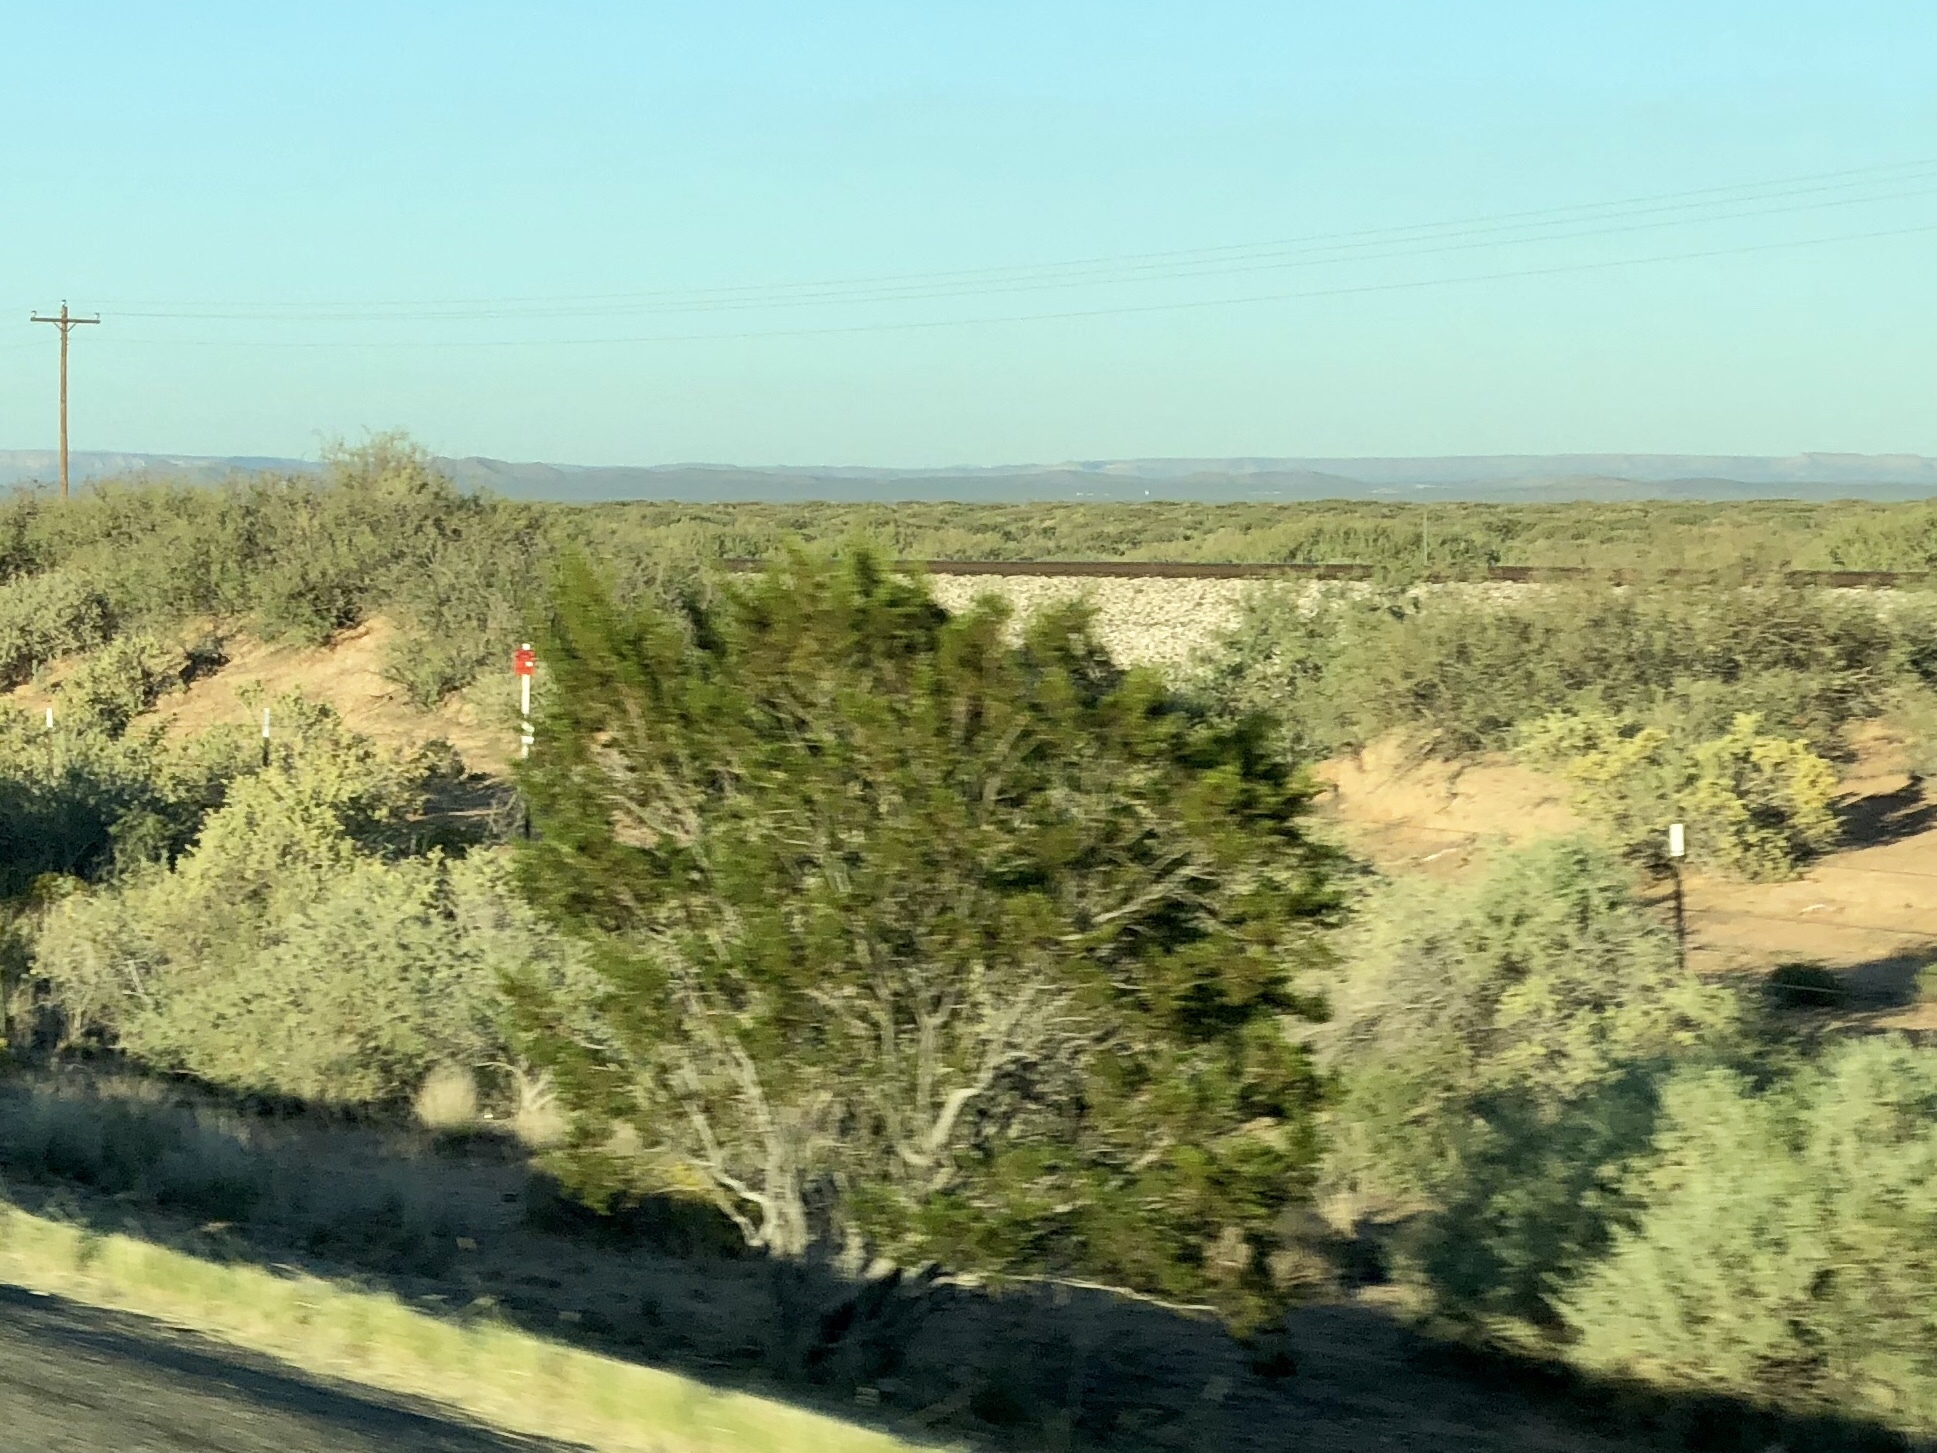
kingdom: Plantae
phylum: Tracheophyta
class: Magnoliopsida
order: Zygophyllales
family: Zygophyllaceae
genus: Larrea
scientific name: Larrea tridentata
